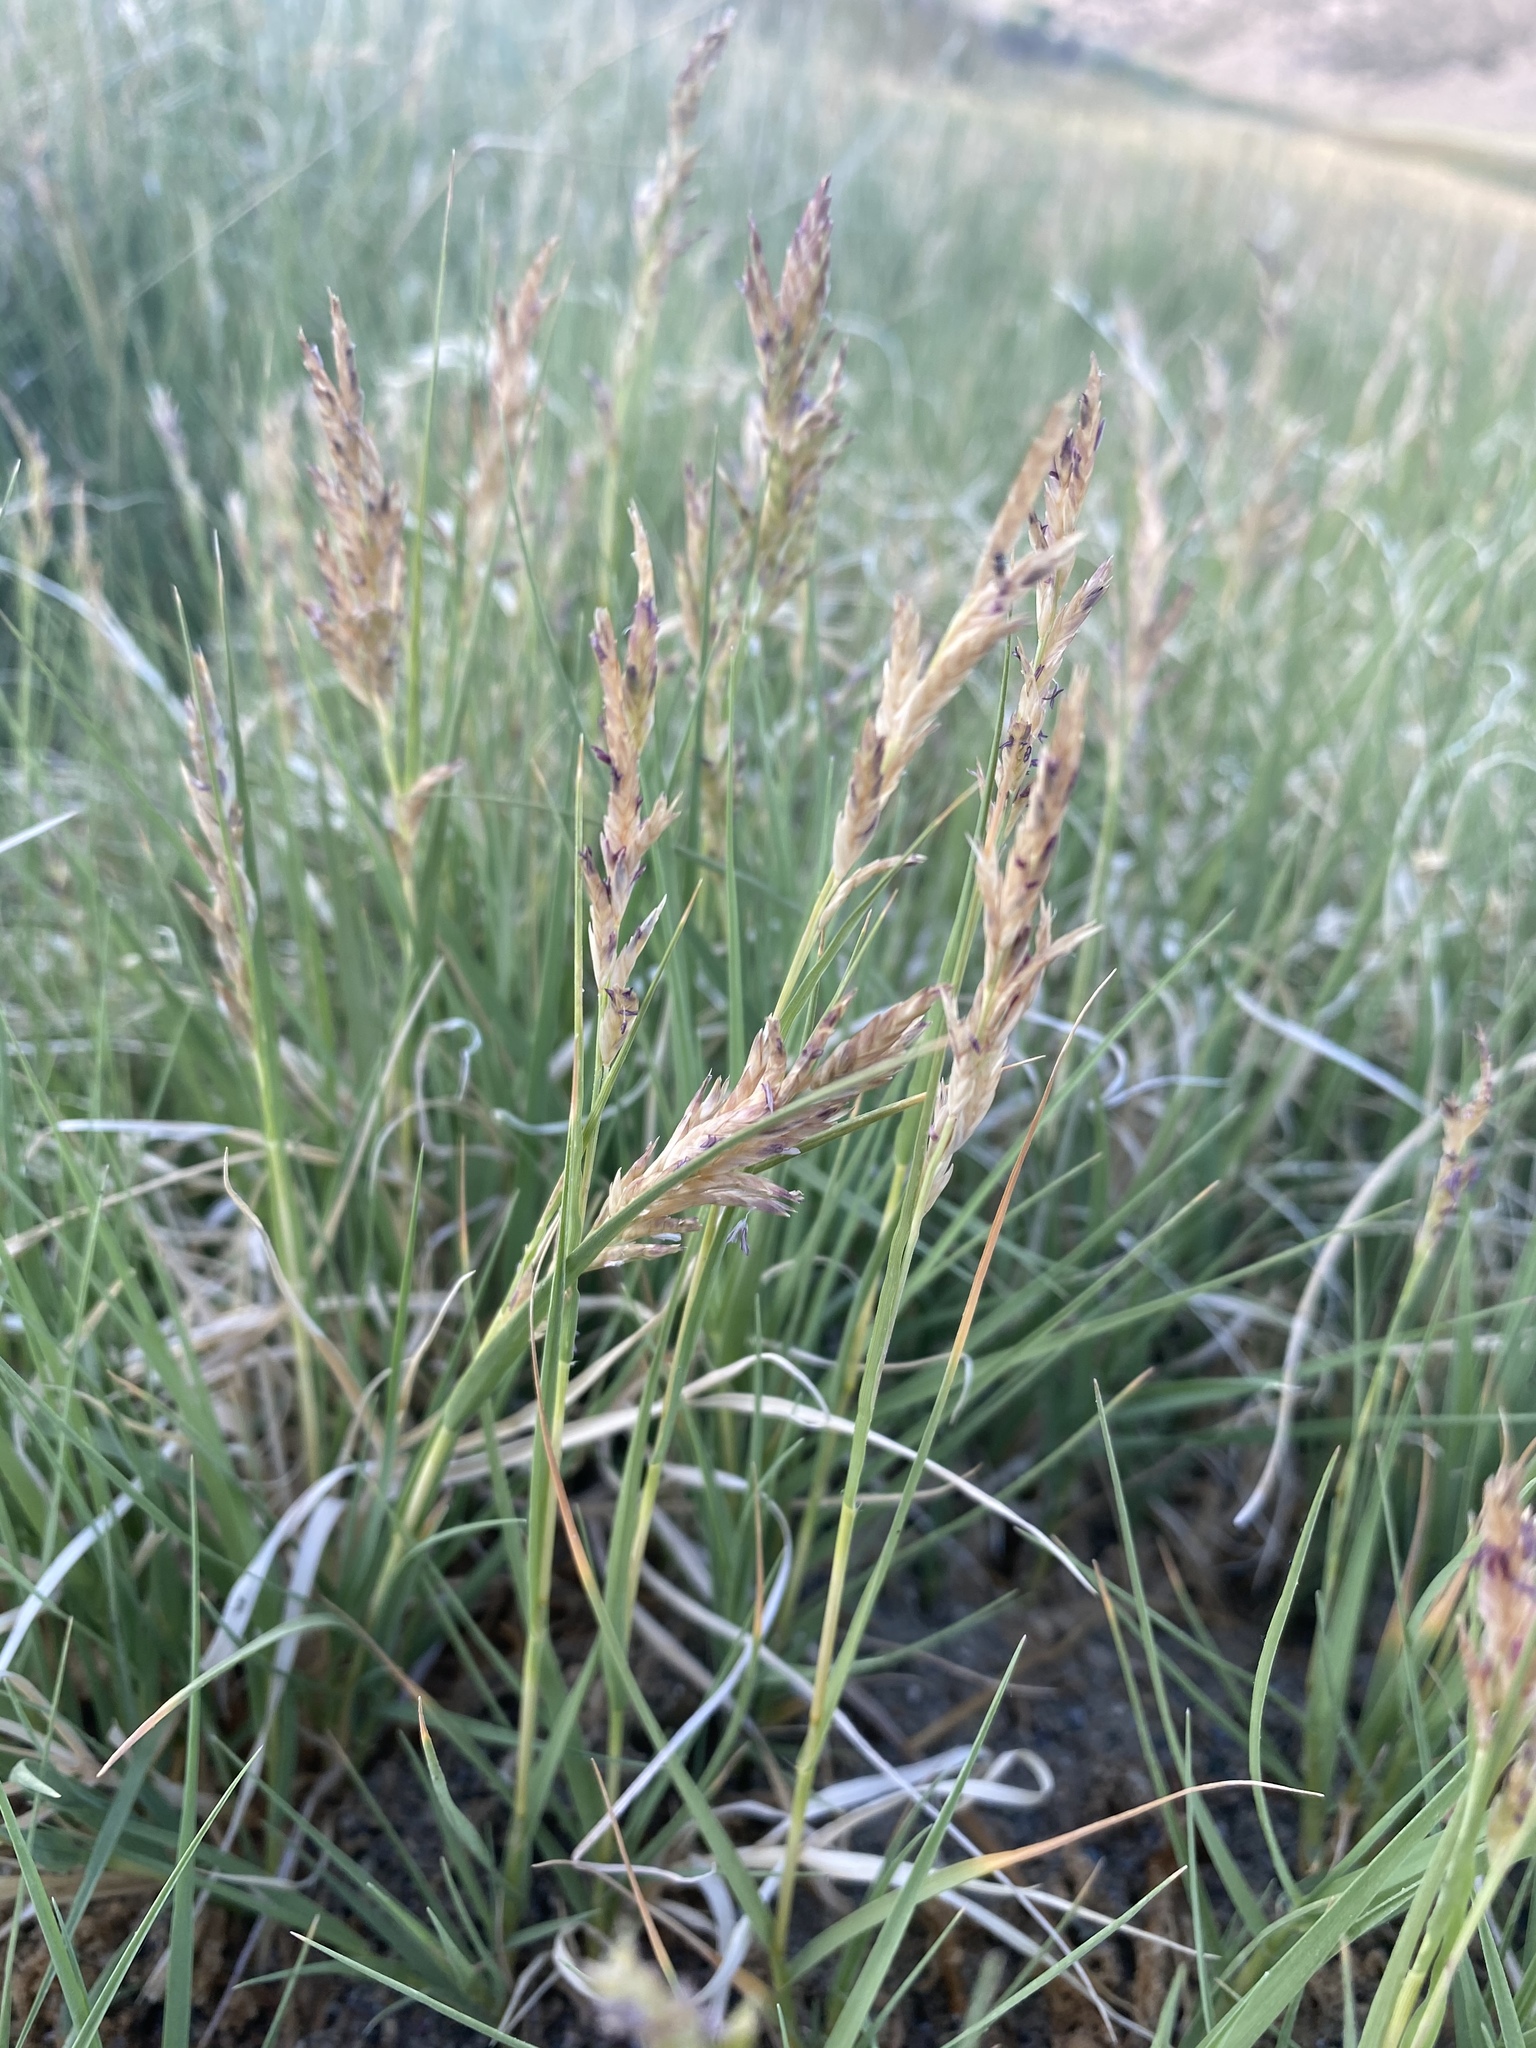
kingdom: Plantae
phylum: Tracheophyta
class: Liliopsida
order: Poales
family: Poaceae
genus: Distichlis
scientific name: Distichlis spicata
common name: Saltgrass
